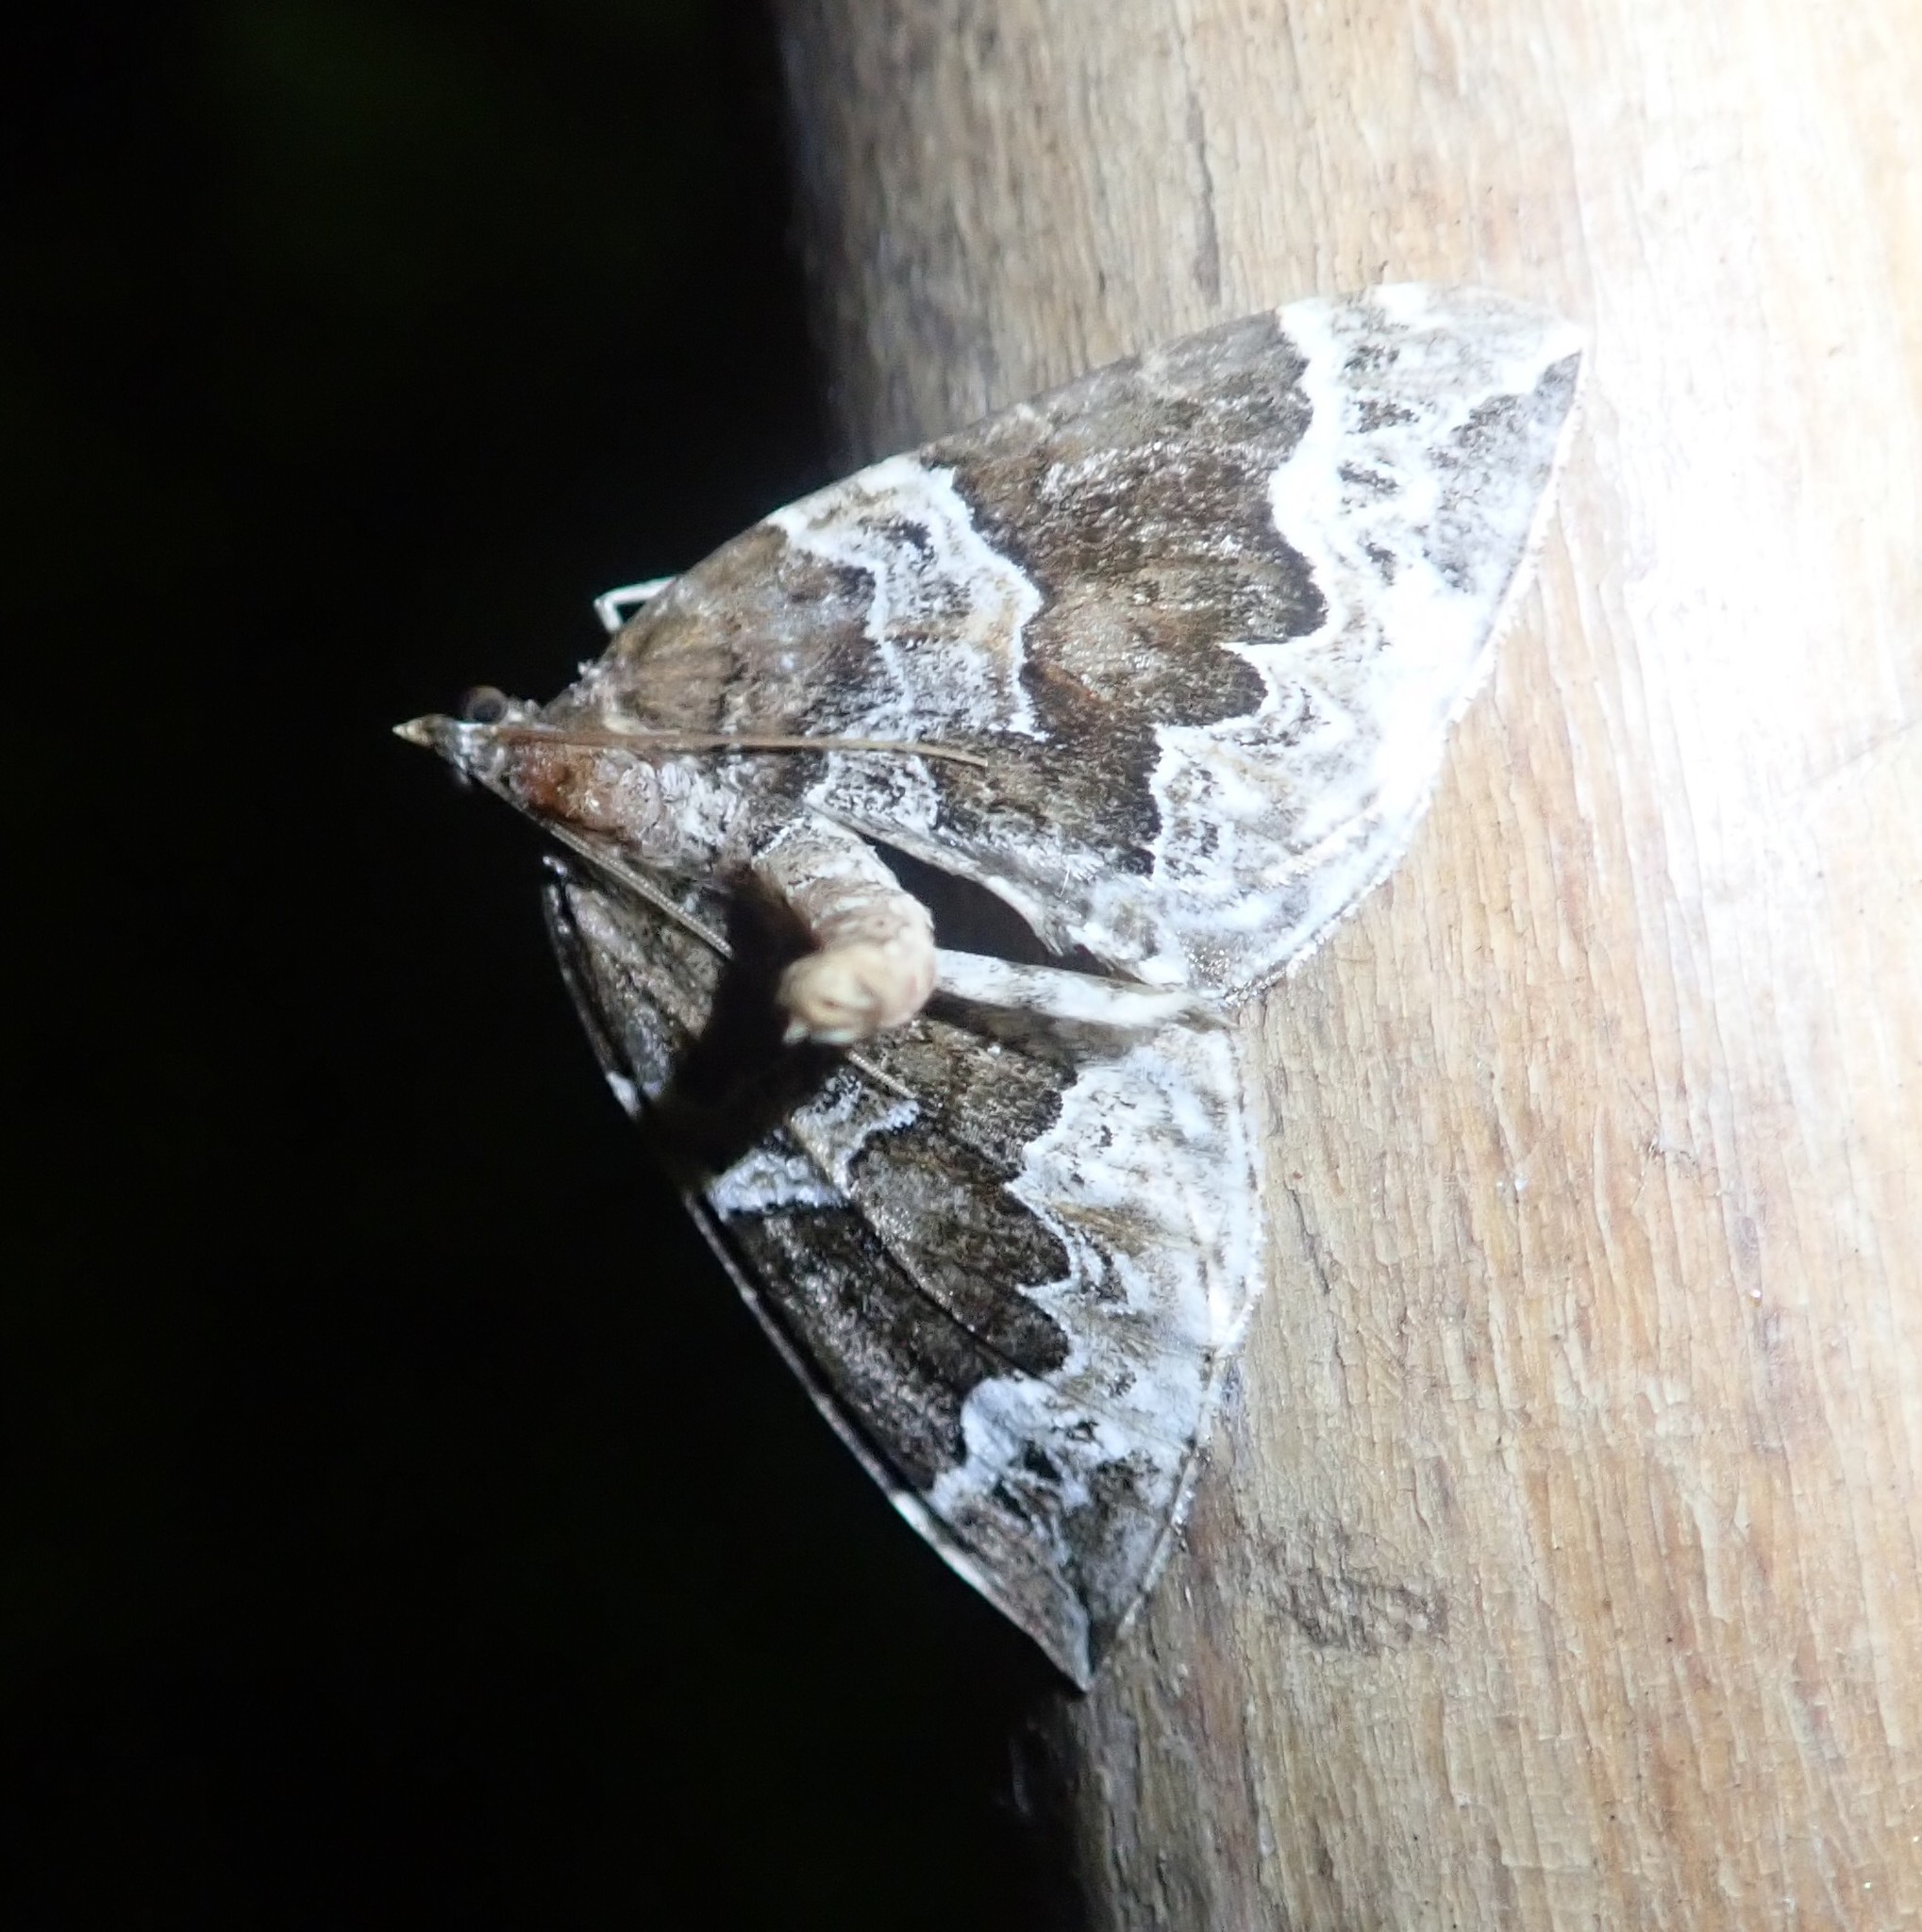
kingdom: Animalia
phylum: Arthropoda
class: Insecta
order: Lepidoptera
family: Geometridae
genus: Eulithis
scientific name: Eulithis prunata
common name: Phoenix
